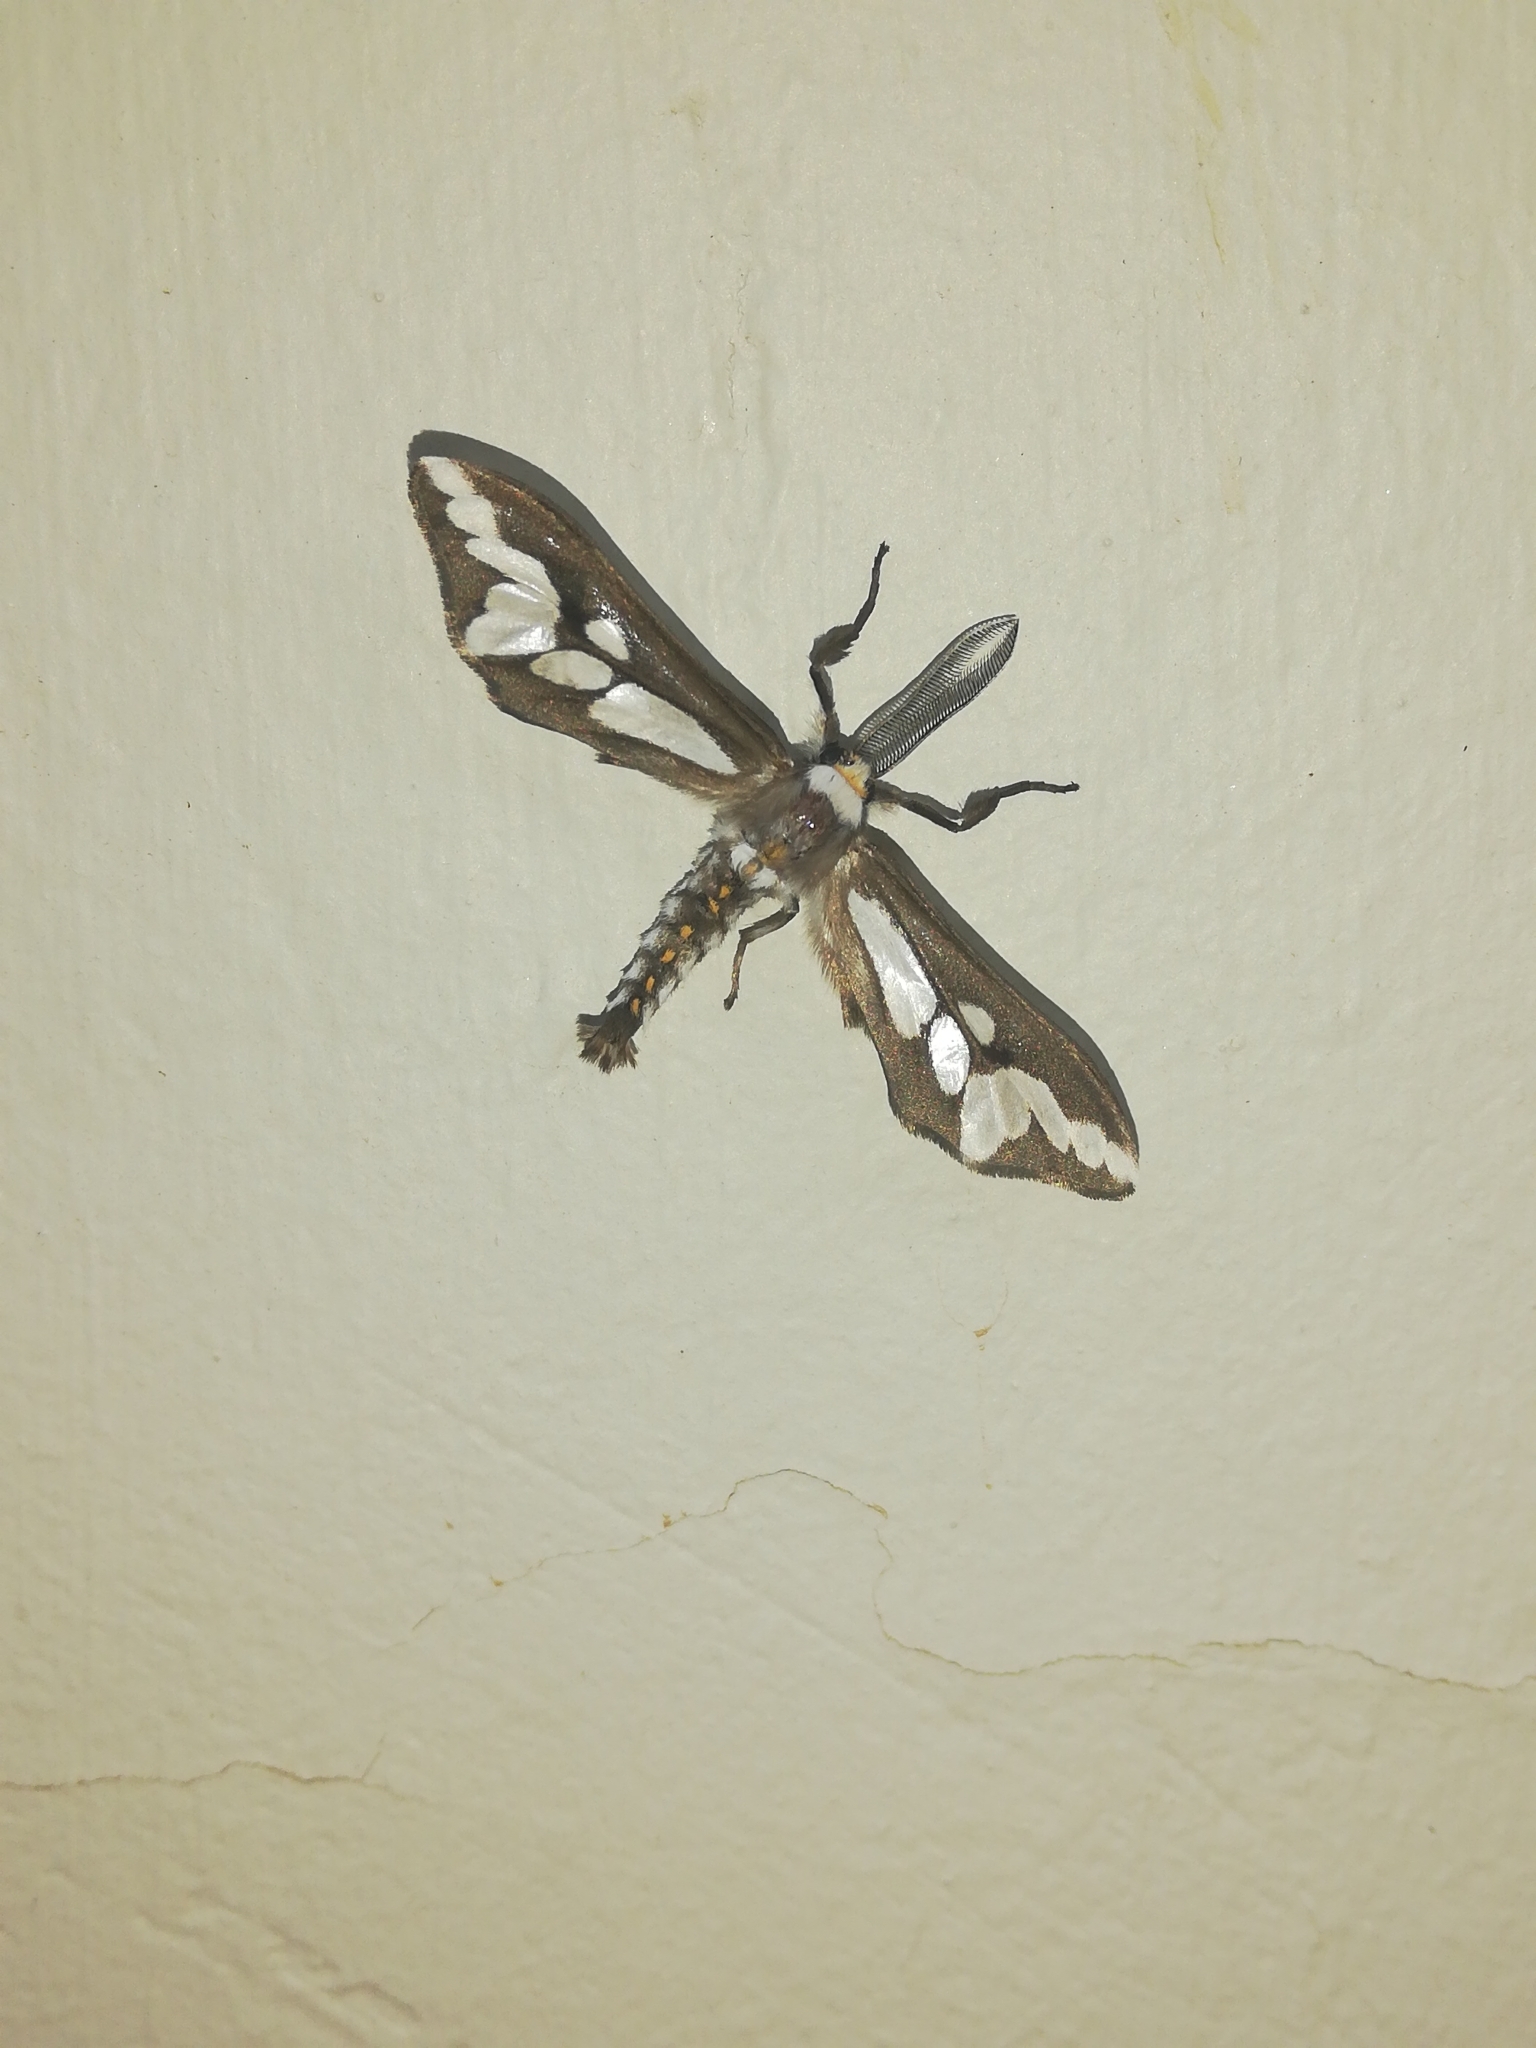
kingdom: Animalia
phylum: Arthropoda
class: Insecta
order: Lepidoptera
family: Erebidae
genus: Thyretes
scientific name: Thyretes caffra
